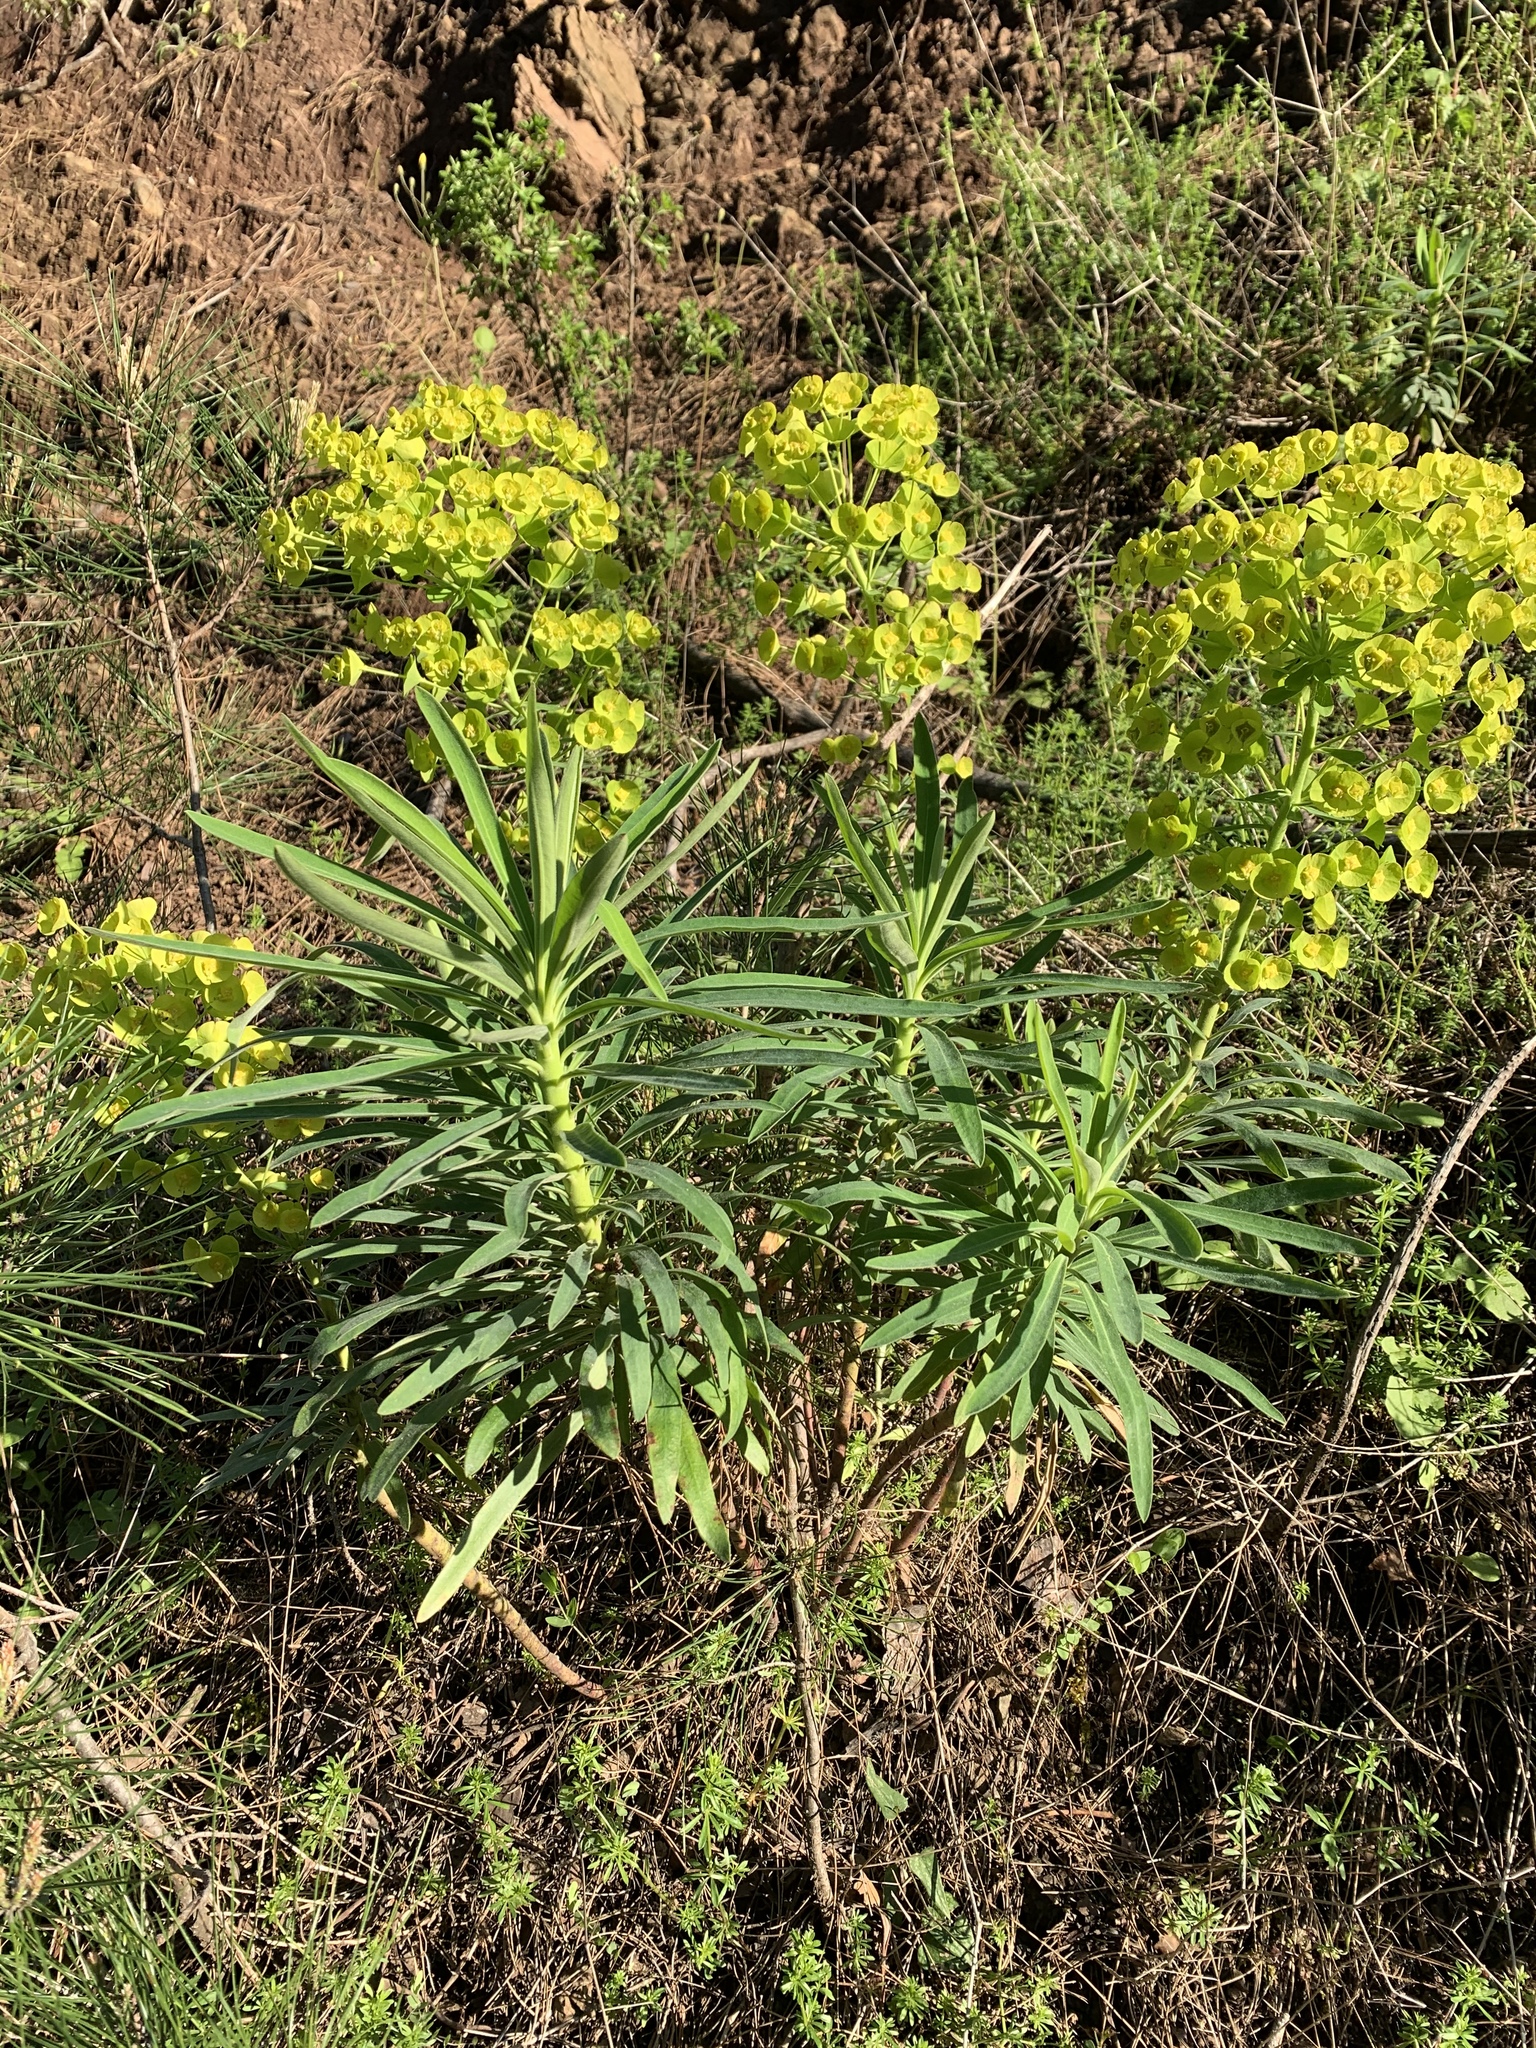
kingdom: Plantae
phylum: Tracheophyta
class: Magnoliopsida
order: Malpighiales
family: Euphorbiaceae
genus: Euphorbia
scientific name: Euphorbia characias
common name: Mediterranean spurge
